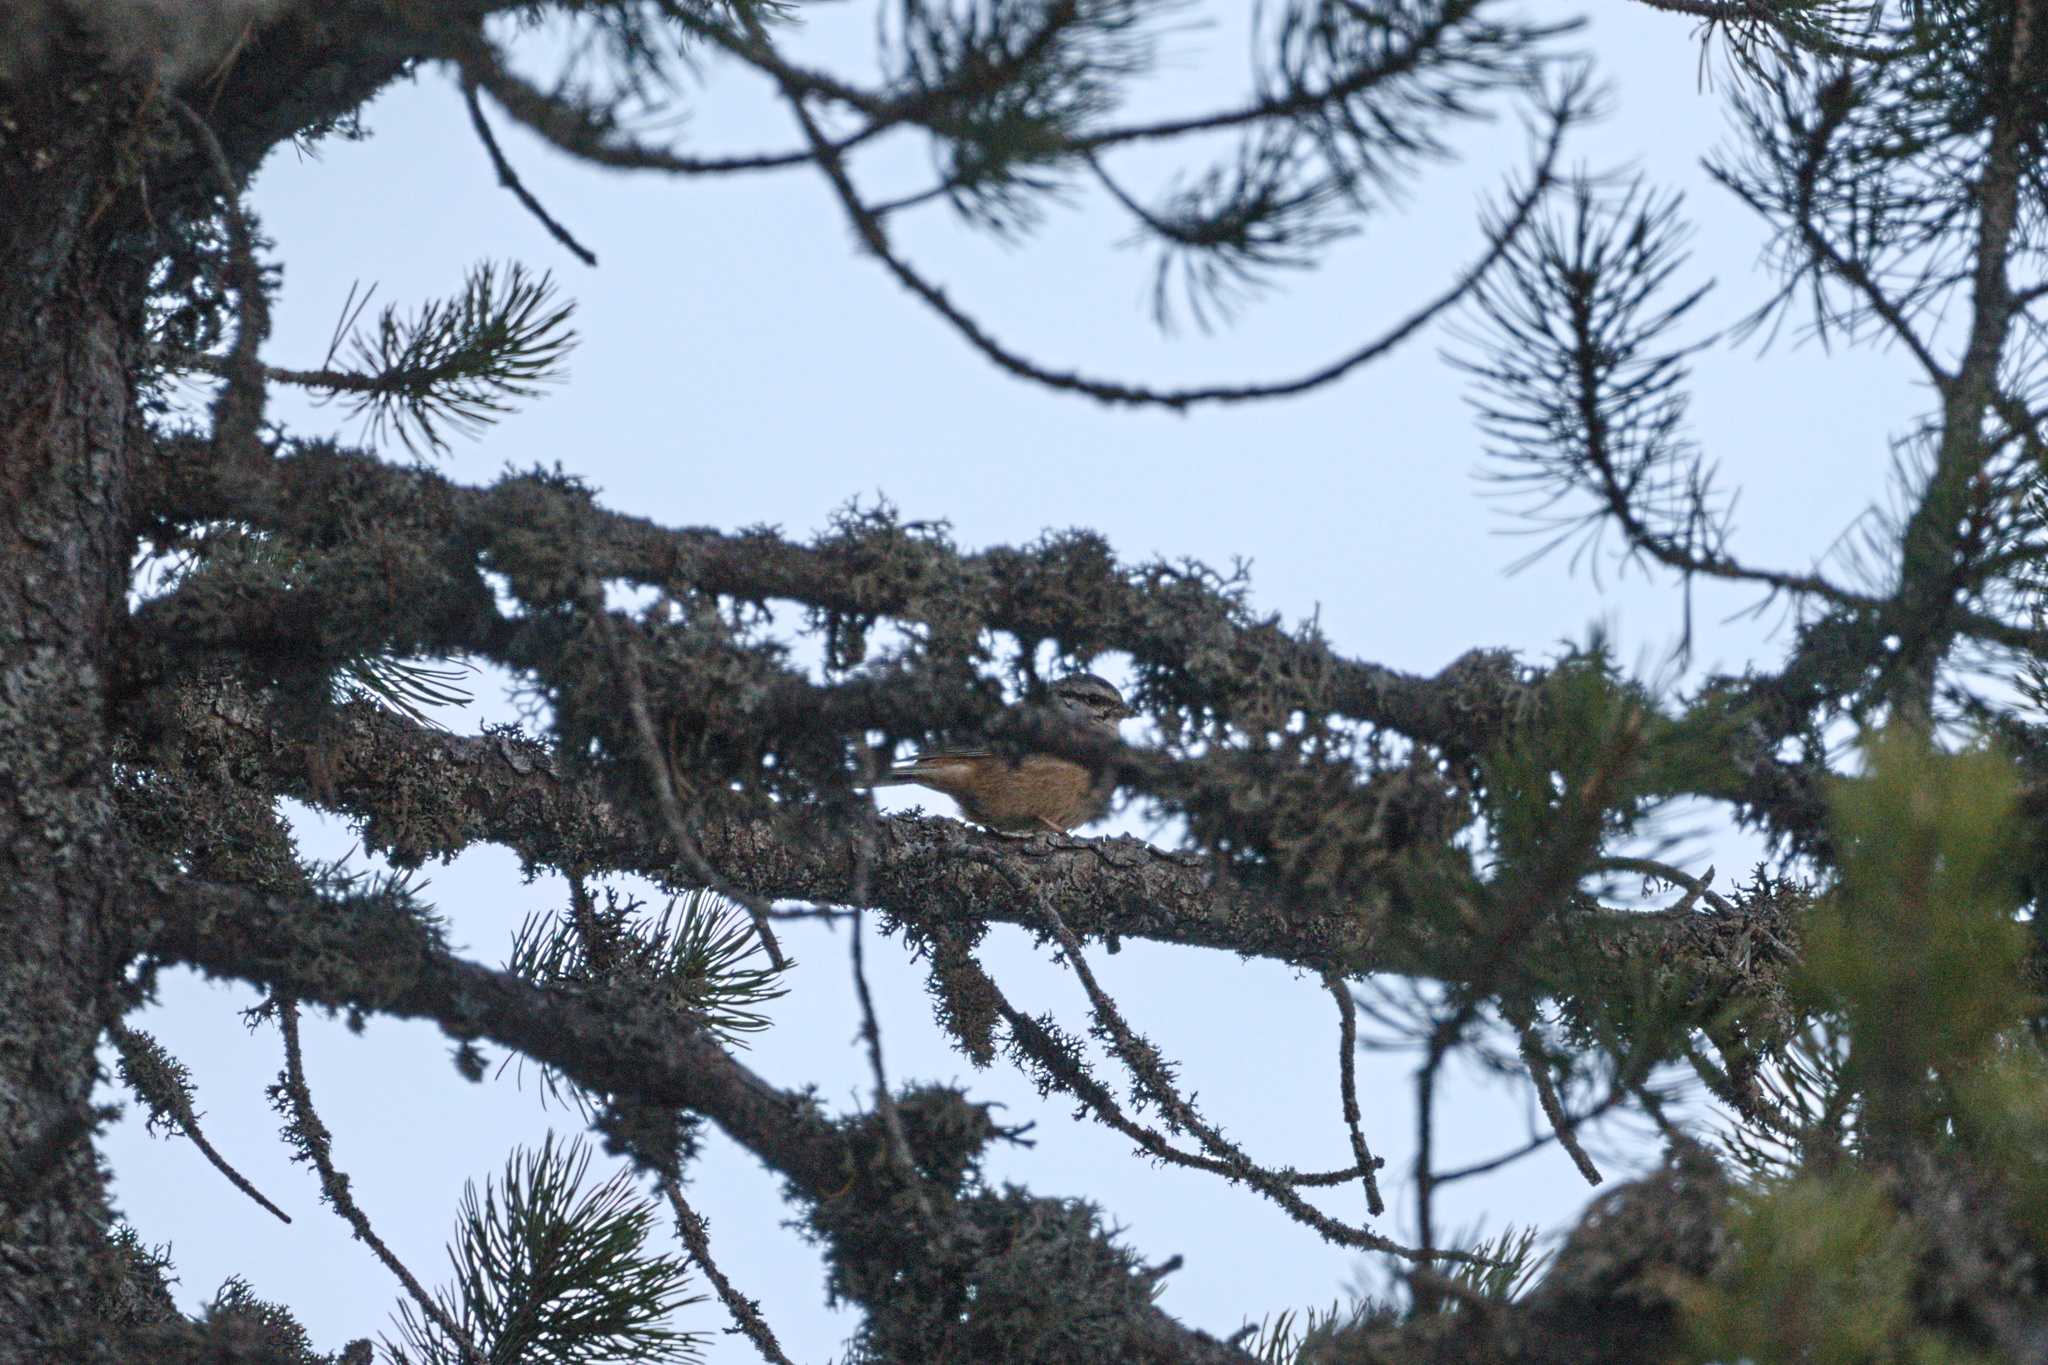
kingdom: Animalia
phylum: Chordata
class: Aves
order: Passeriformes
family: Emberizidae
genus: Emberiza
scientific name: Emberiza cia
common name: Rock bunting
